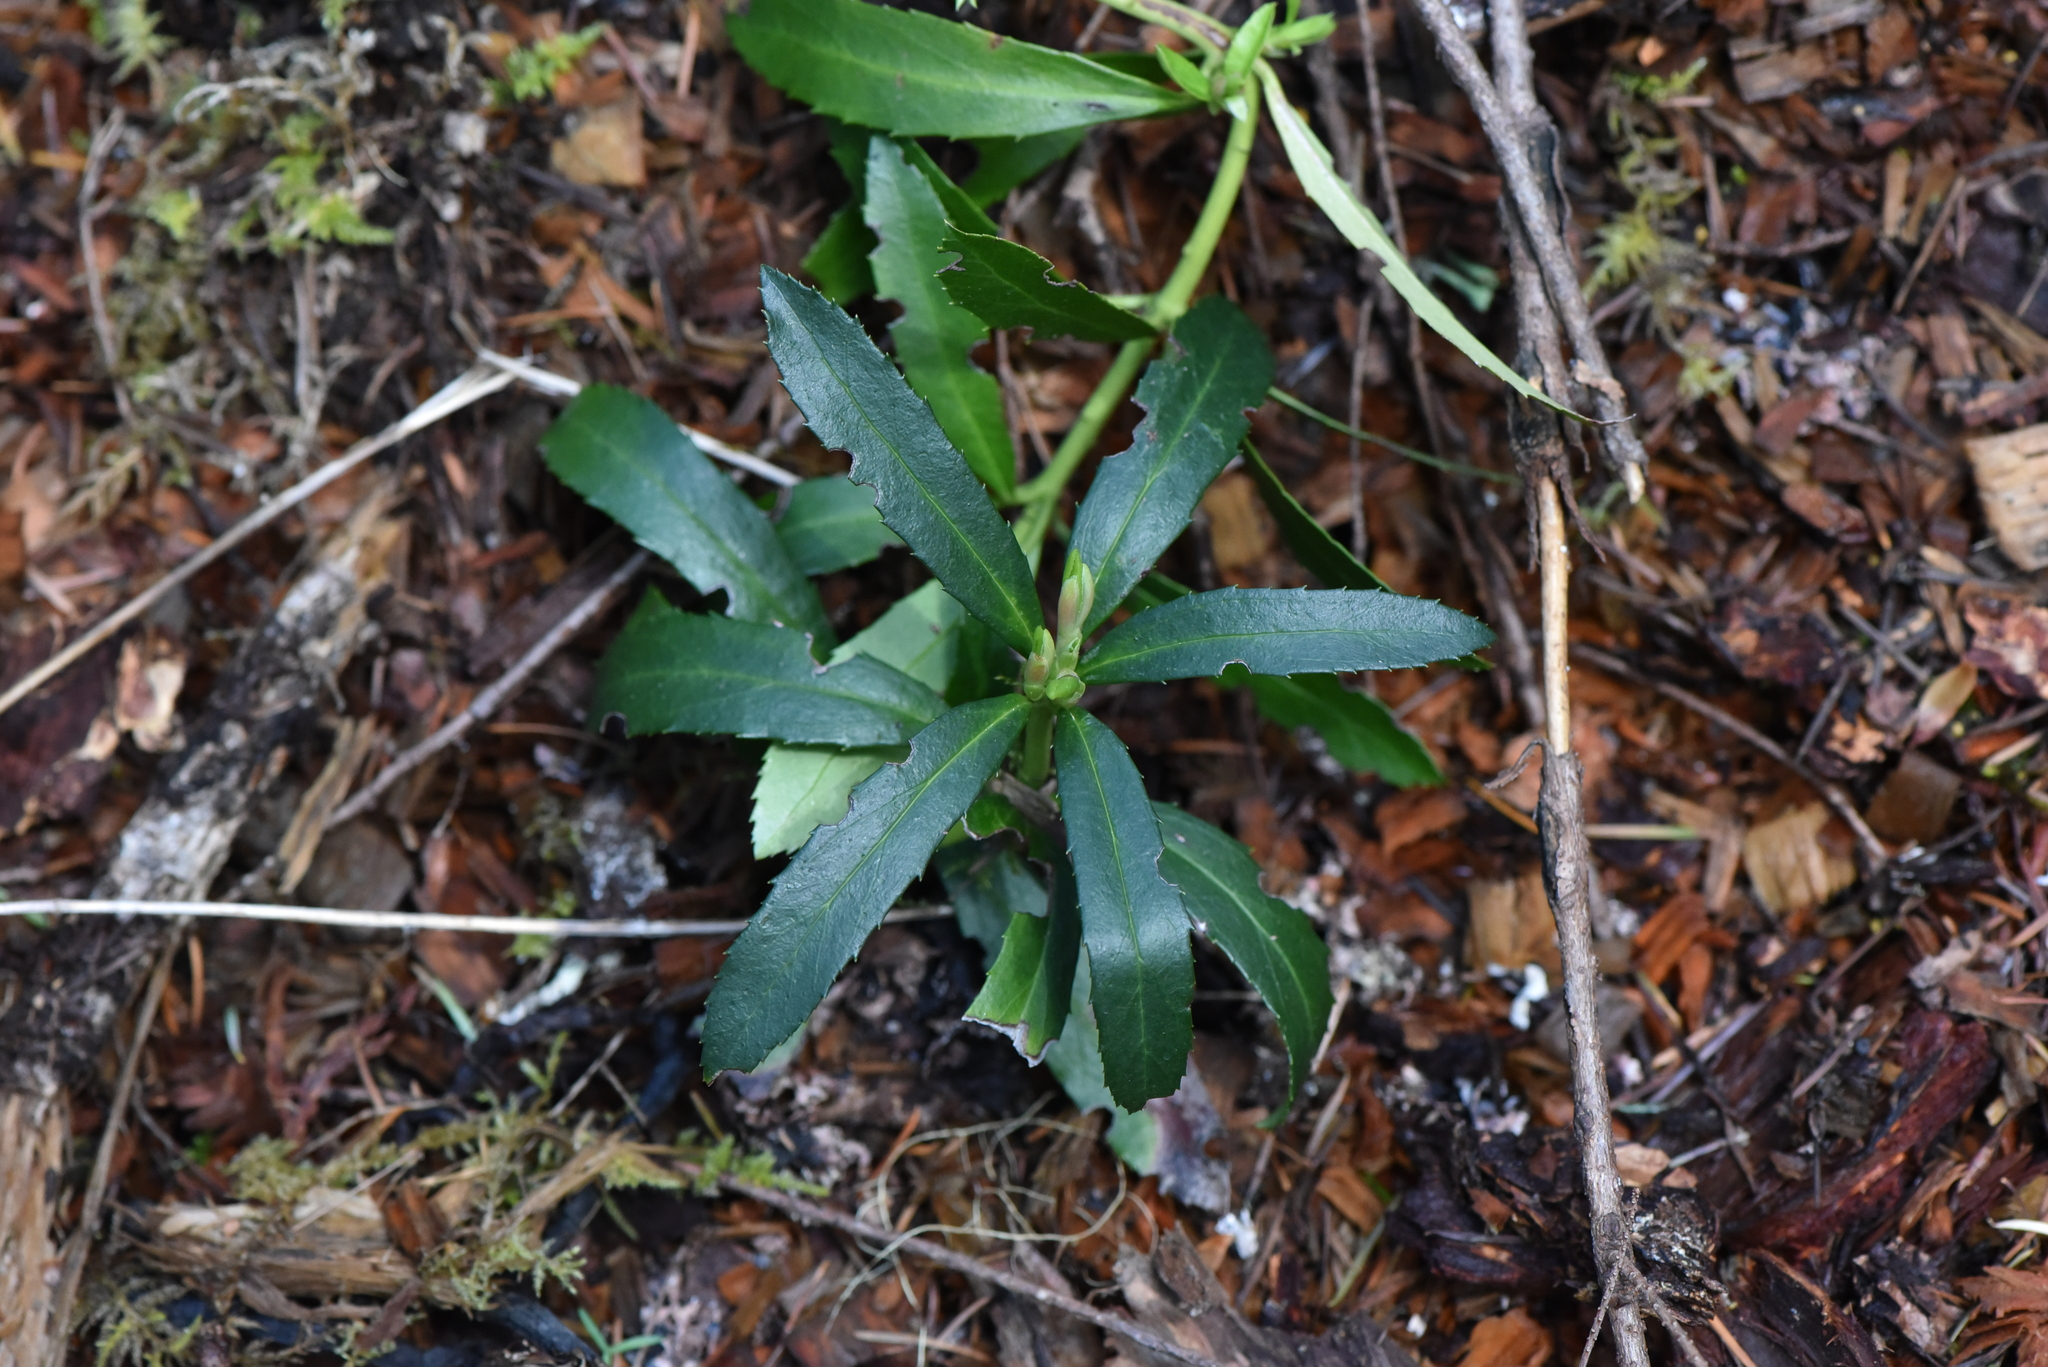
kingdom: Plantae
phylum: Tracheophyta
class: Magnoliopsida
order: Ericales
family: Ericaceae
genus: Chimaphila
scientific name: Chimaphila umbellata
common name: Pipsissewa
